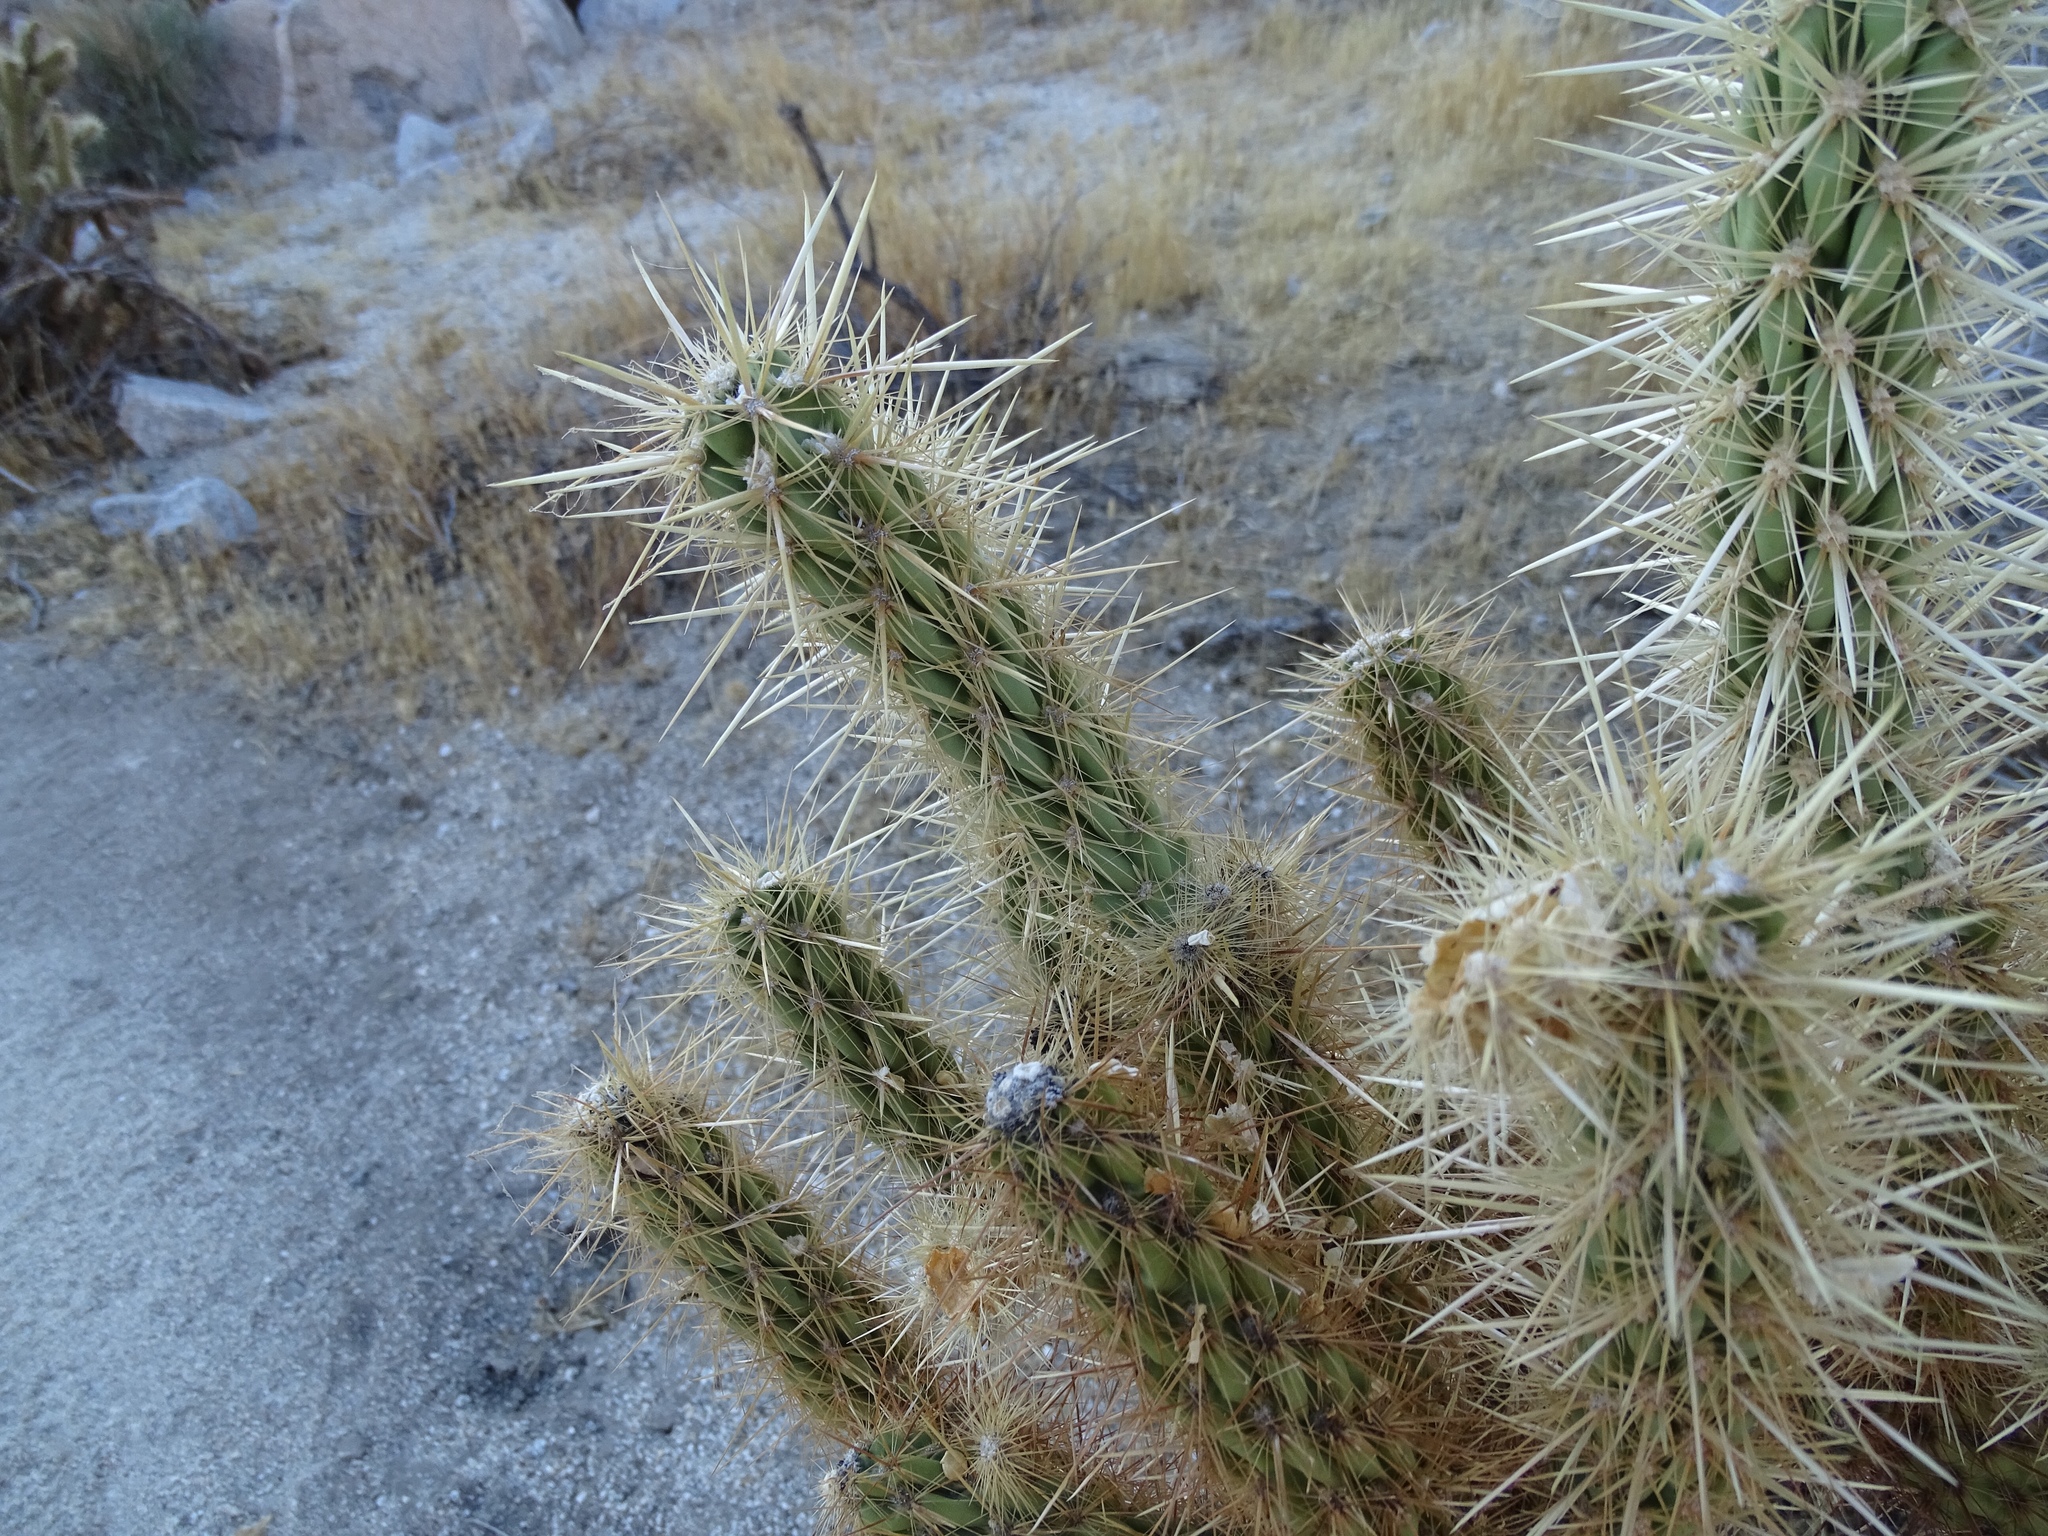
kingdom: Plantae
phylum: Tracheophyta
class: Magnoliopsida
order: Caryophyllales
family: Cactaceae
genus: Cylindropuntia
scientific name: Cylindropuntia ganderi
